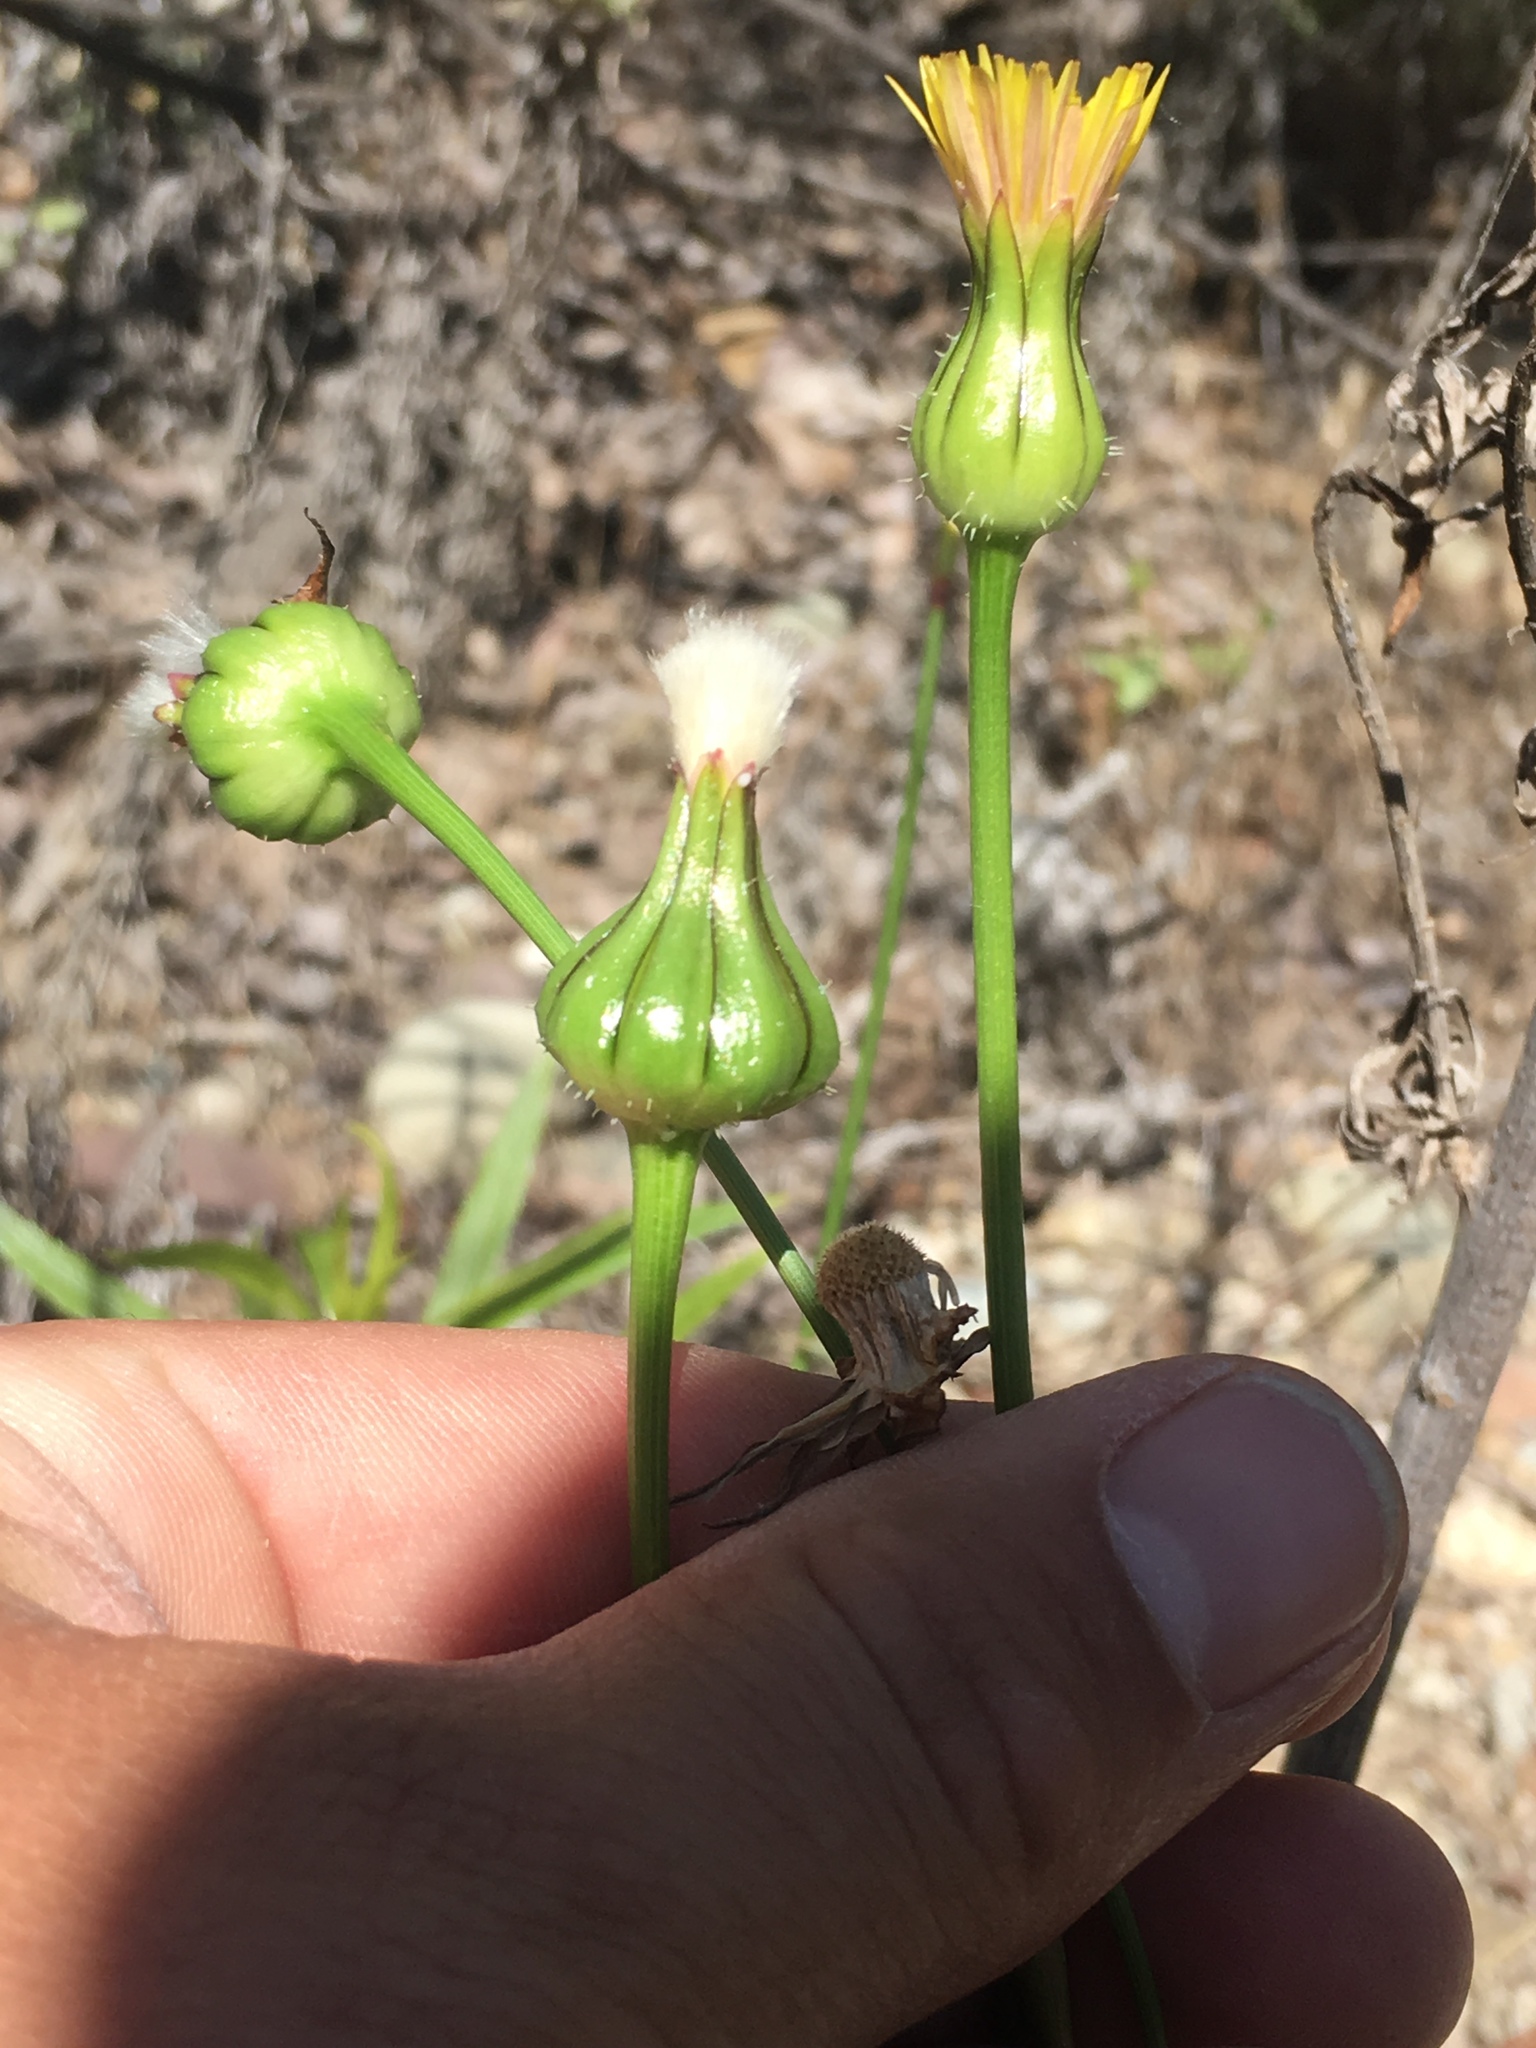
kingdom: Plantae
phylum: Tracheophyta
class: Magnoliopsida
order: Asterales
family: Asteraceae
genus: Urospermum
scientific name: Urospermum picroides
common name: False hawkbit
